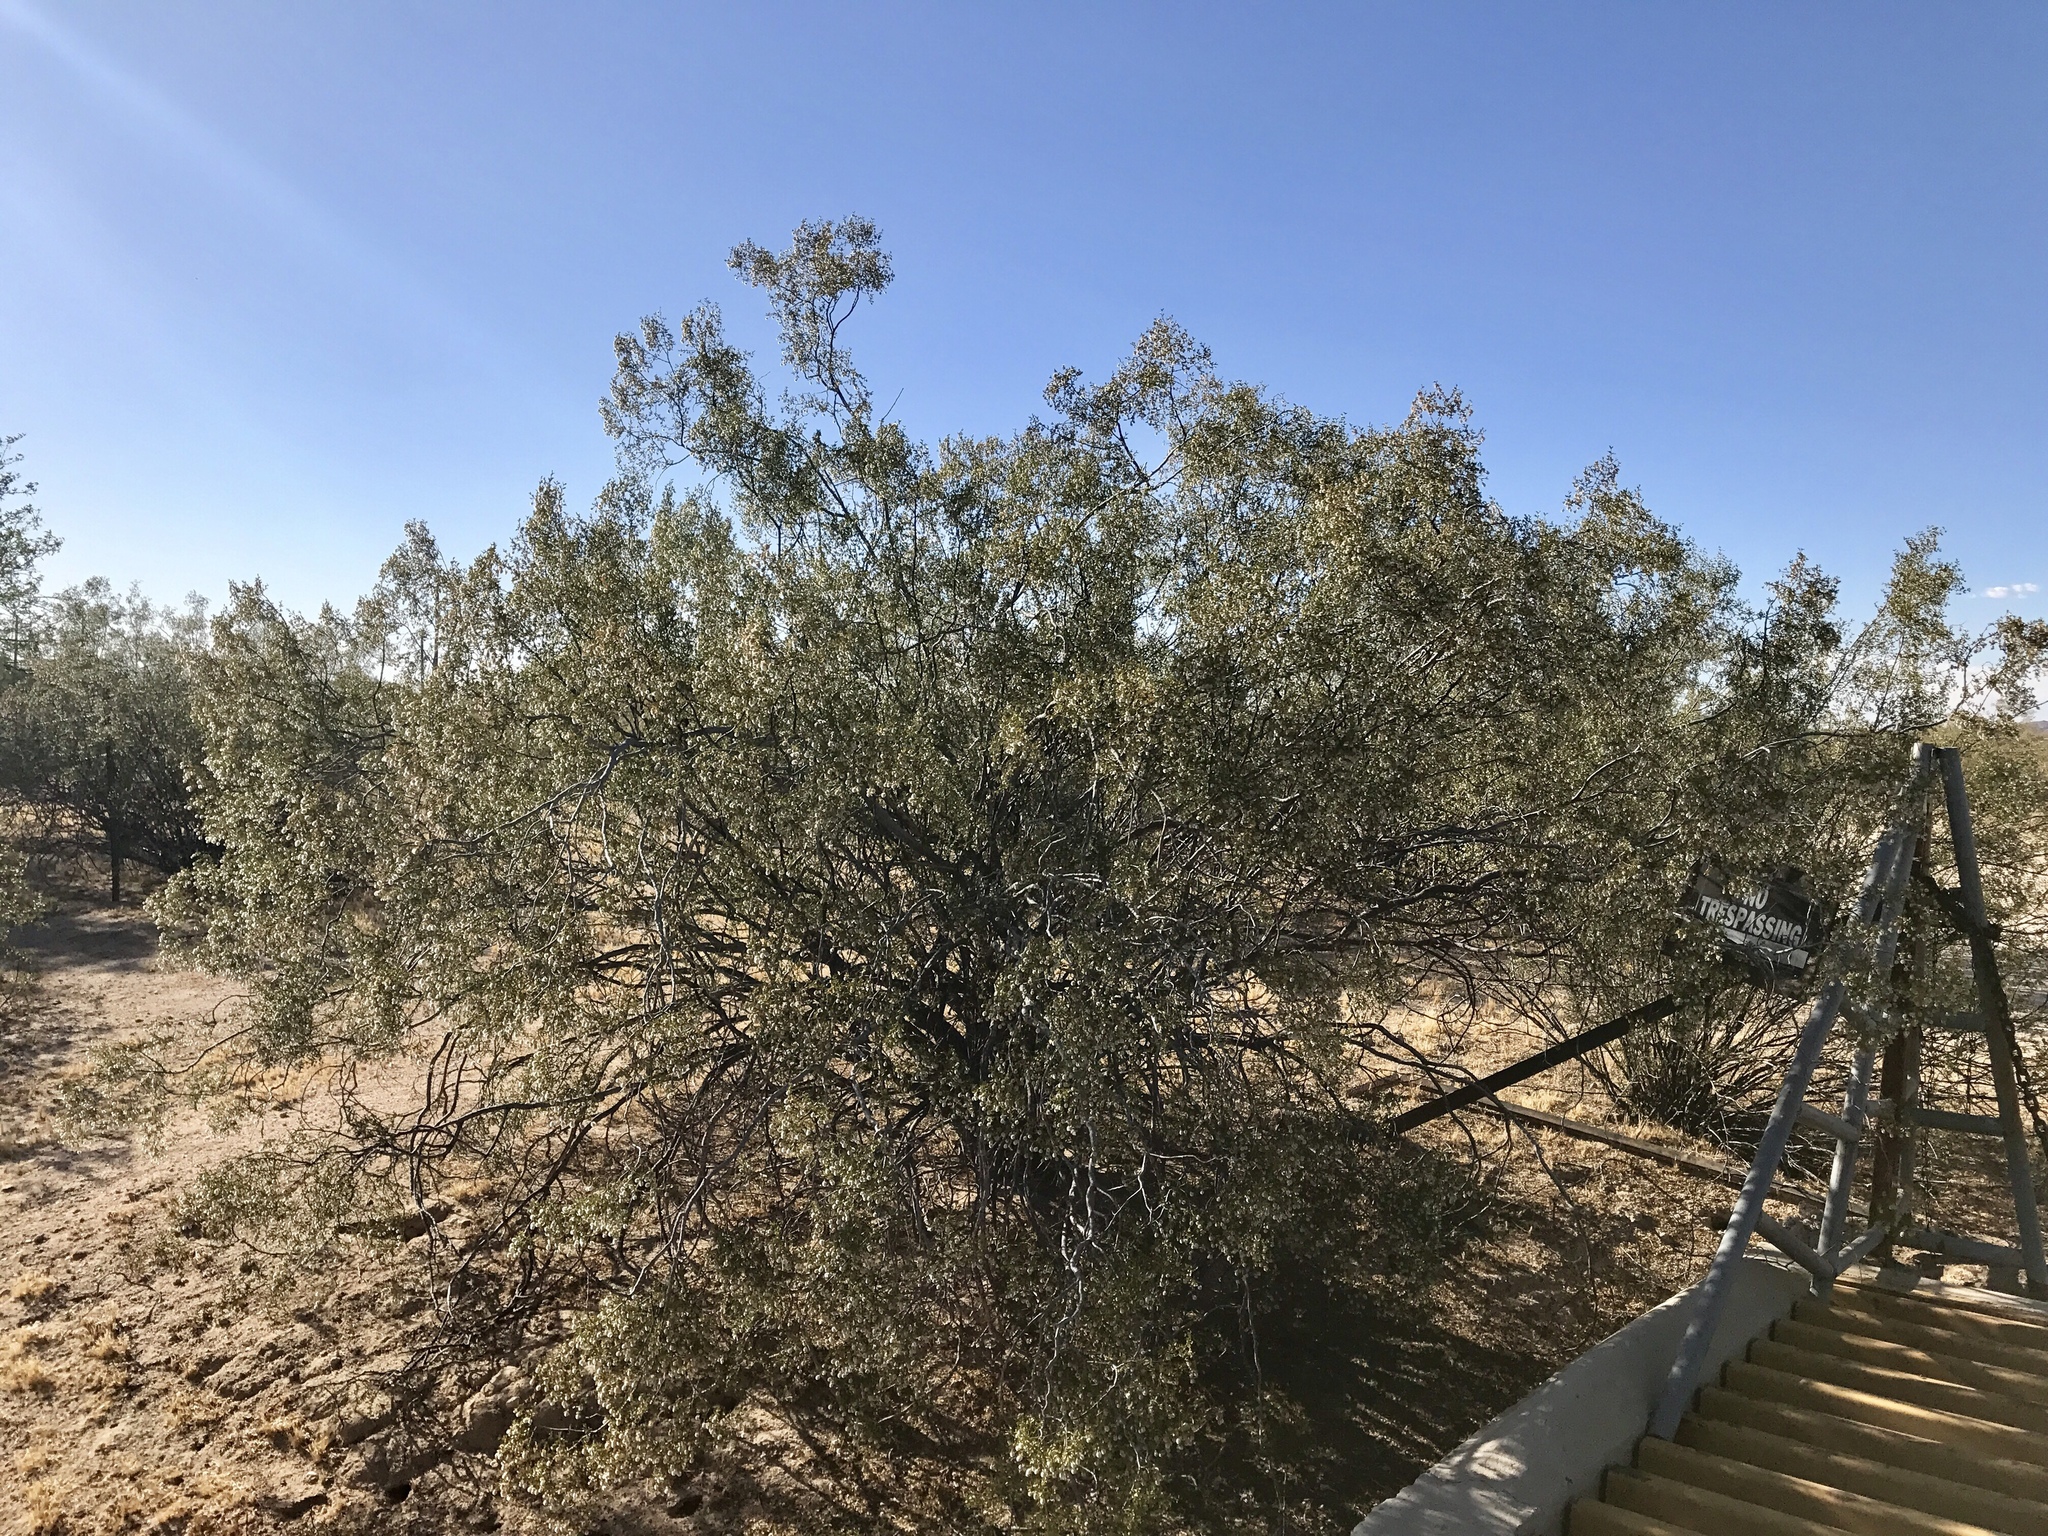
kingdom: Plantae
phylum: Tracheophyta
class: Magnoliopsida
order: Zygophyllales
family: Zygophyllaceae
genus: Larrea
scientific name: Larrea tridentata
